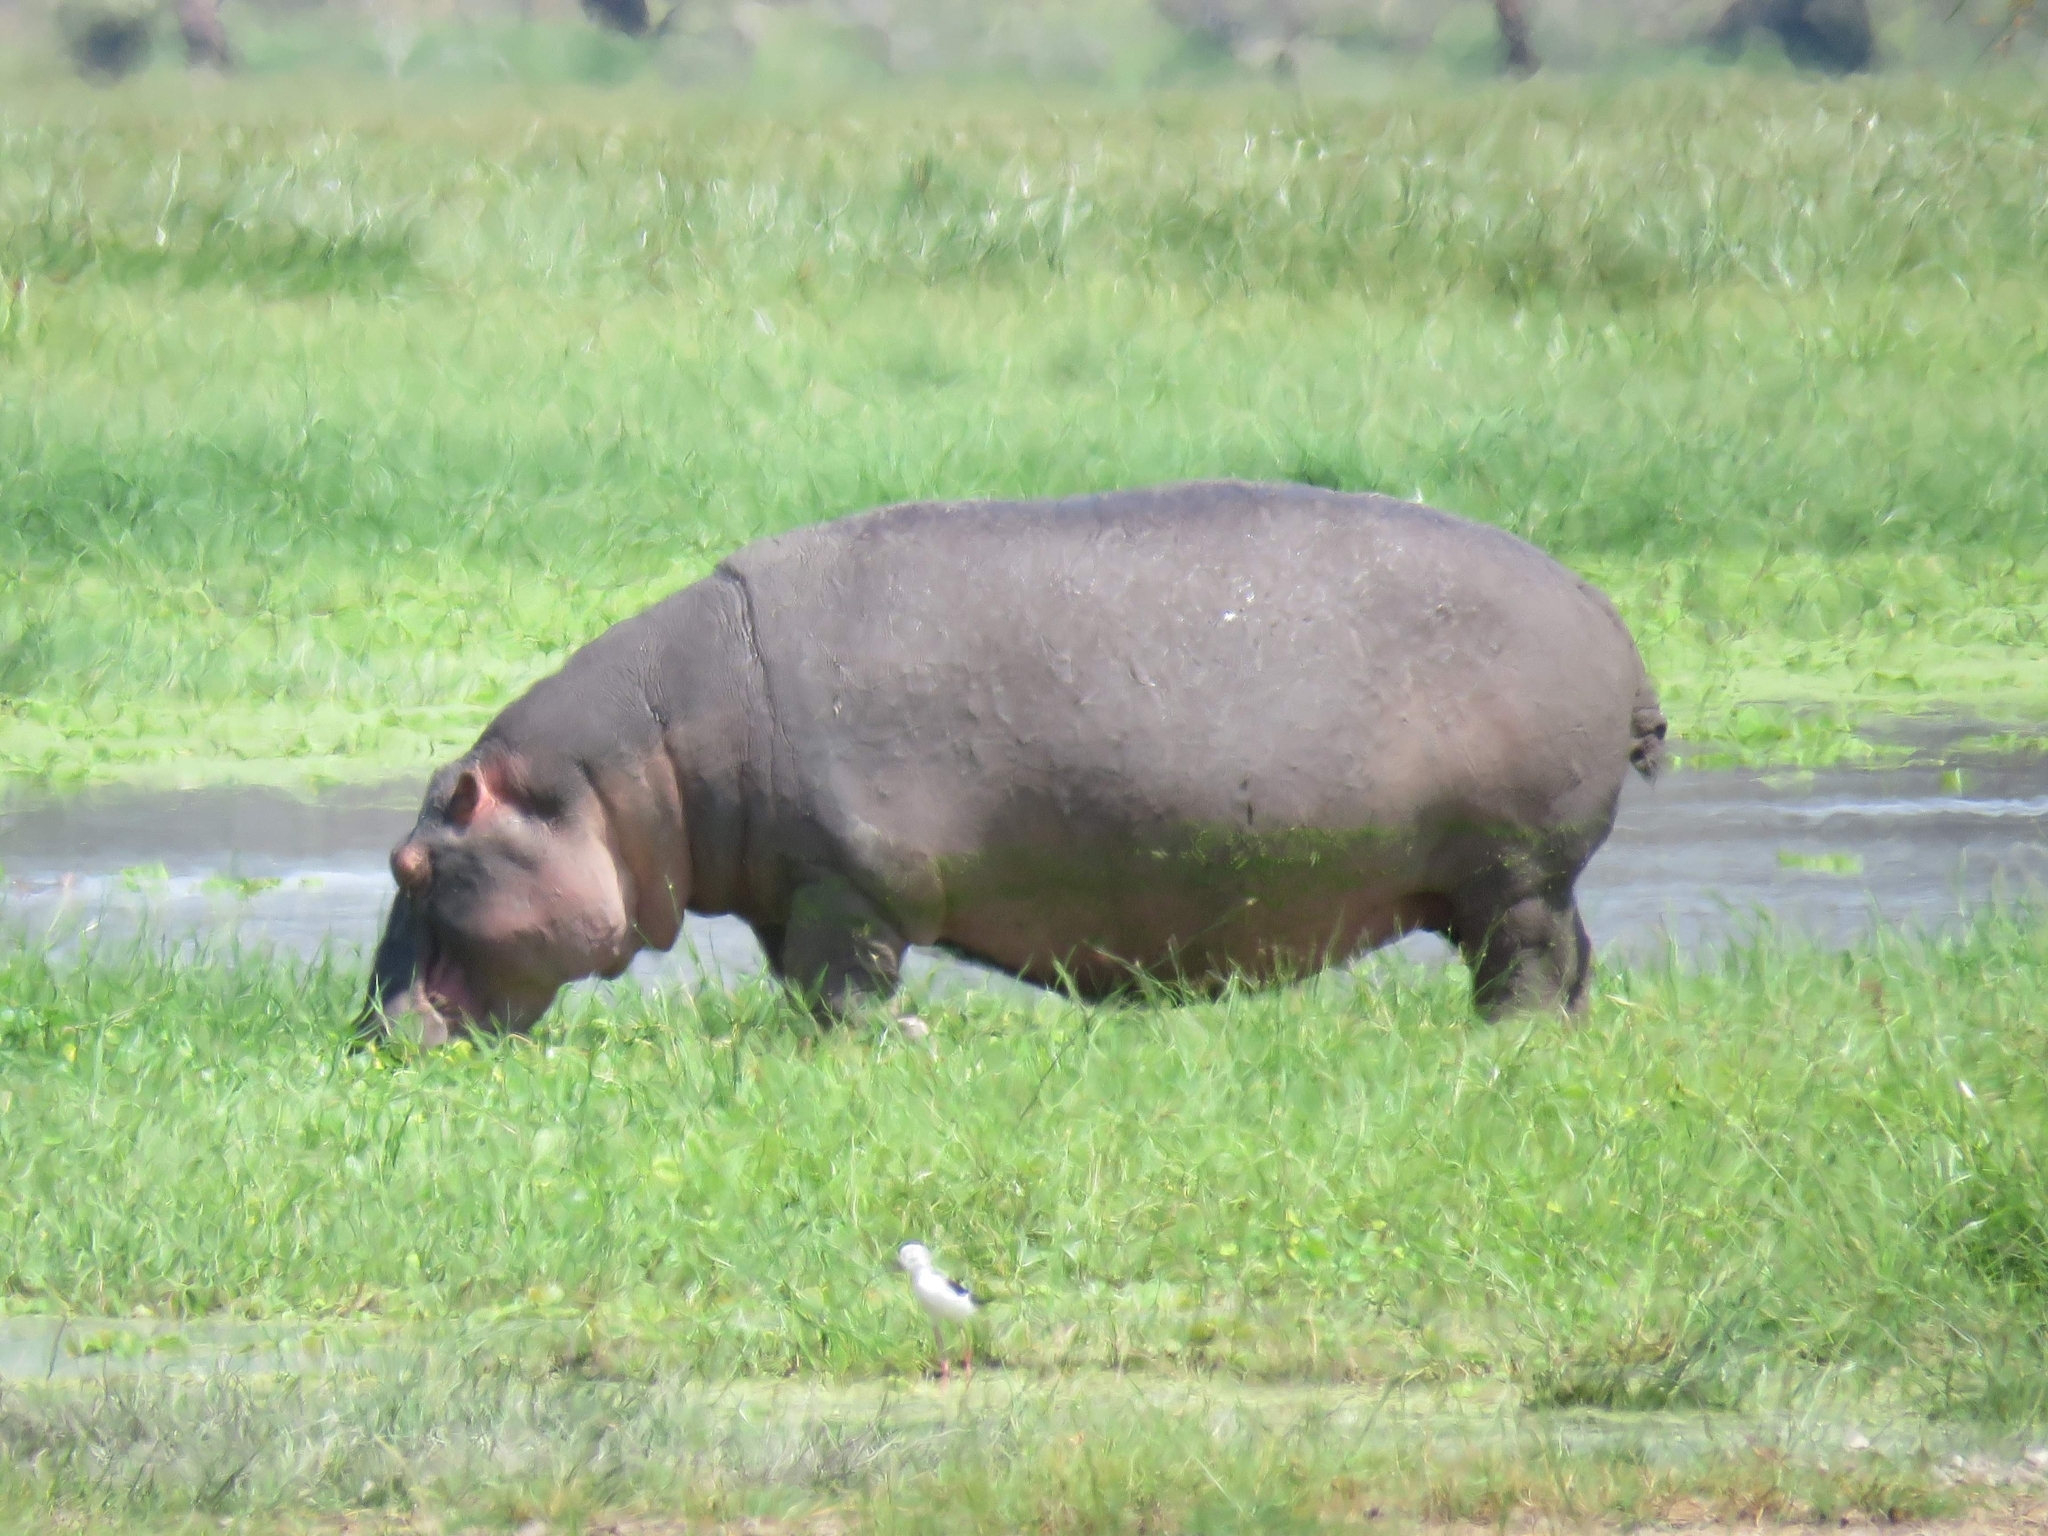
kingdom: Animalia
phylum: Chordata
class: Mammalia
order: Artiodactyla
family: Hippopotamidae
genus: Hippopotamus
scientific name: Hippopotamus amphibius
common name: Common hippopotamus
